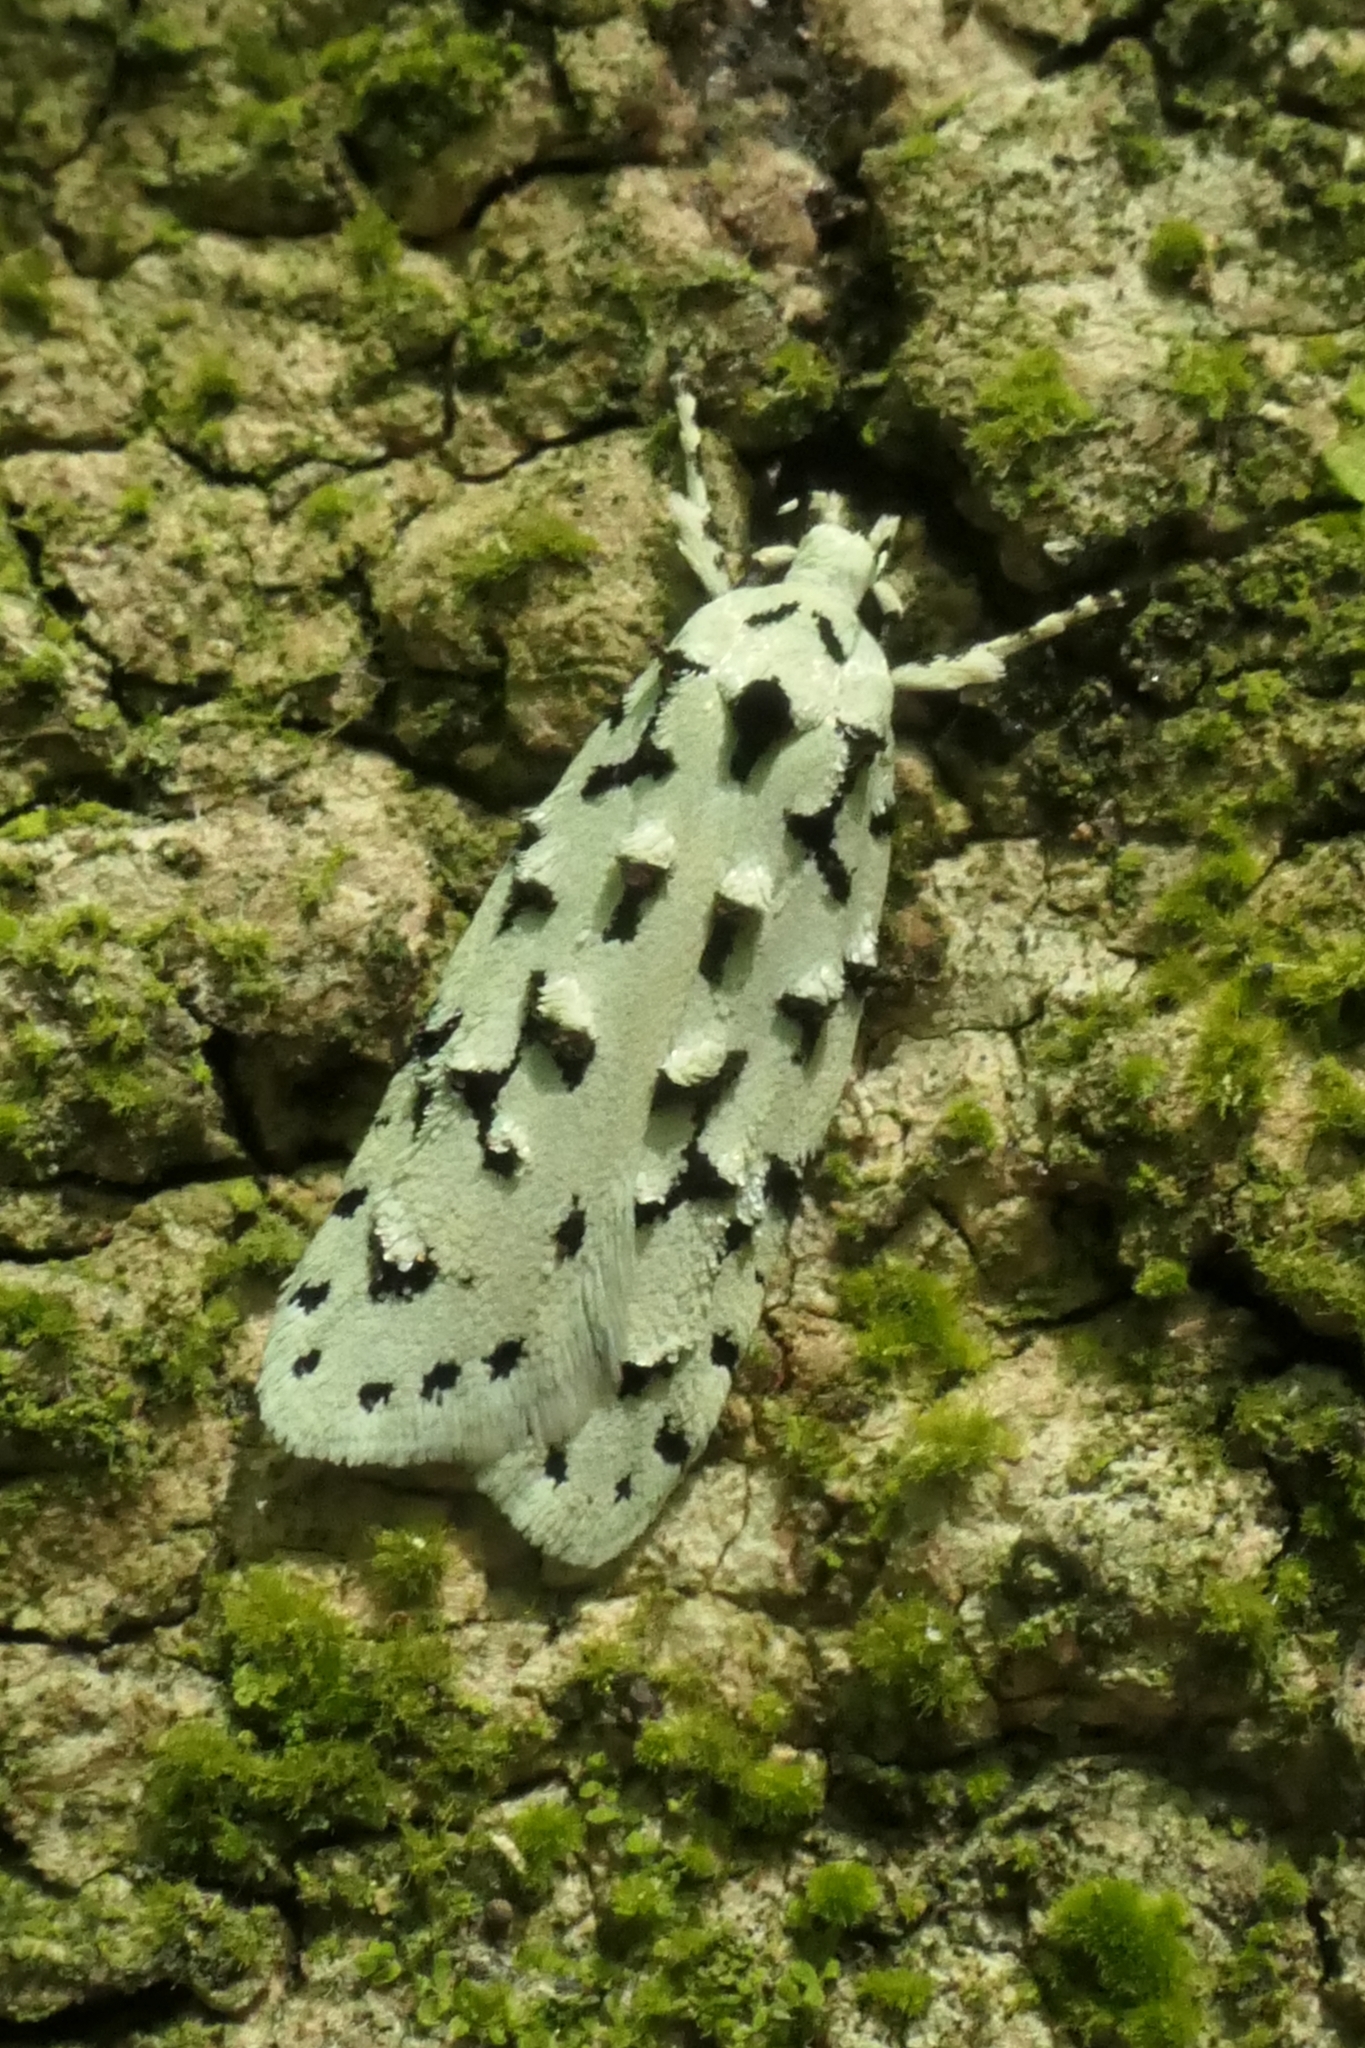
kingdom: Animalia
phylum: Arthropoda
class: Insecta
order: Lepidoptera
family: Oecophoridae
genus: Izatha
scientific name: Izatha huttoni
